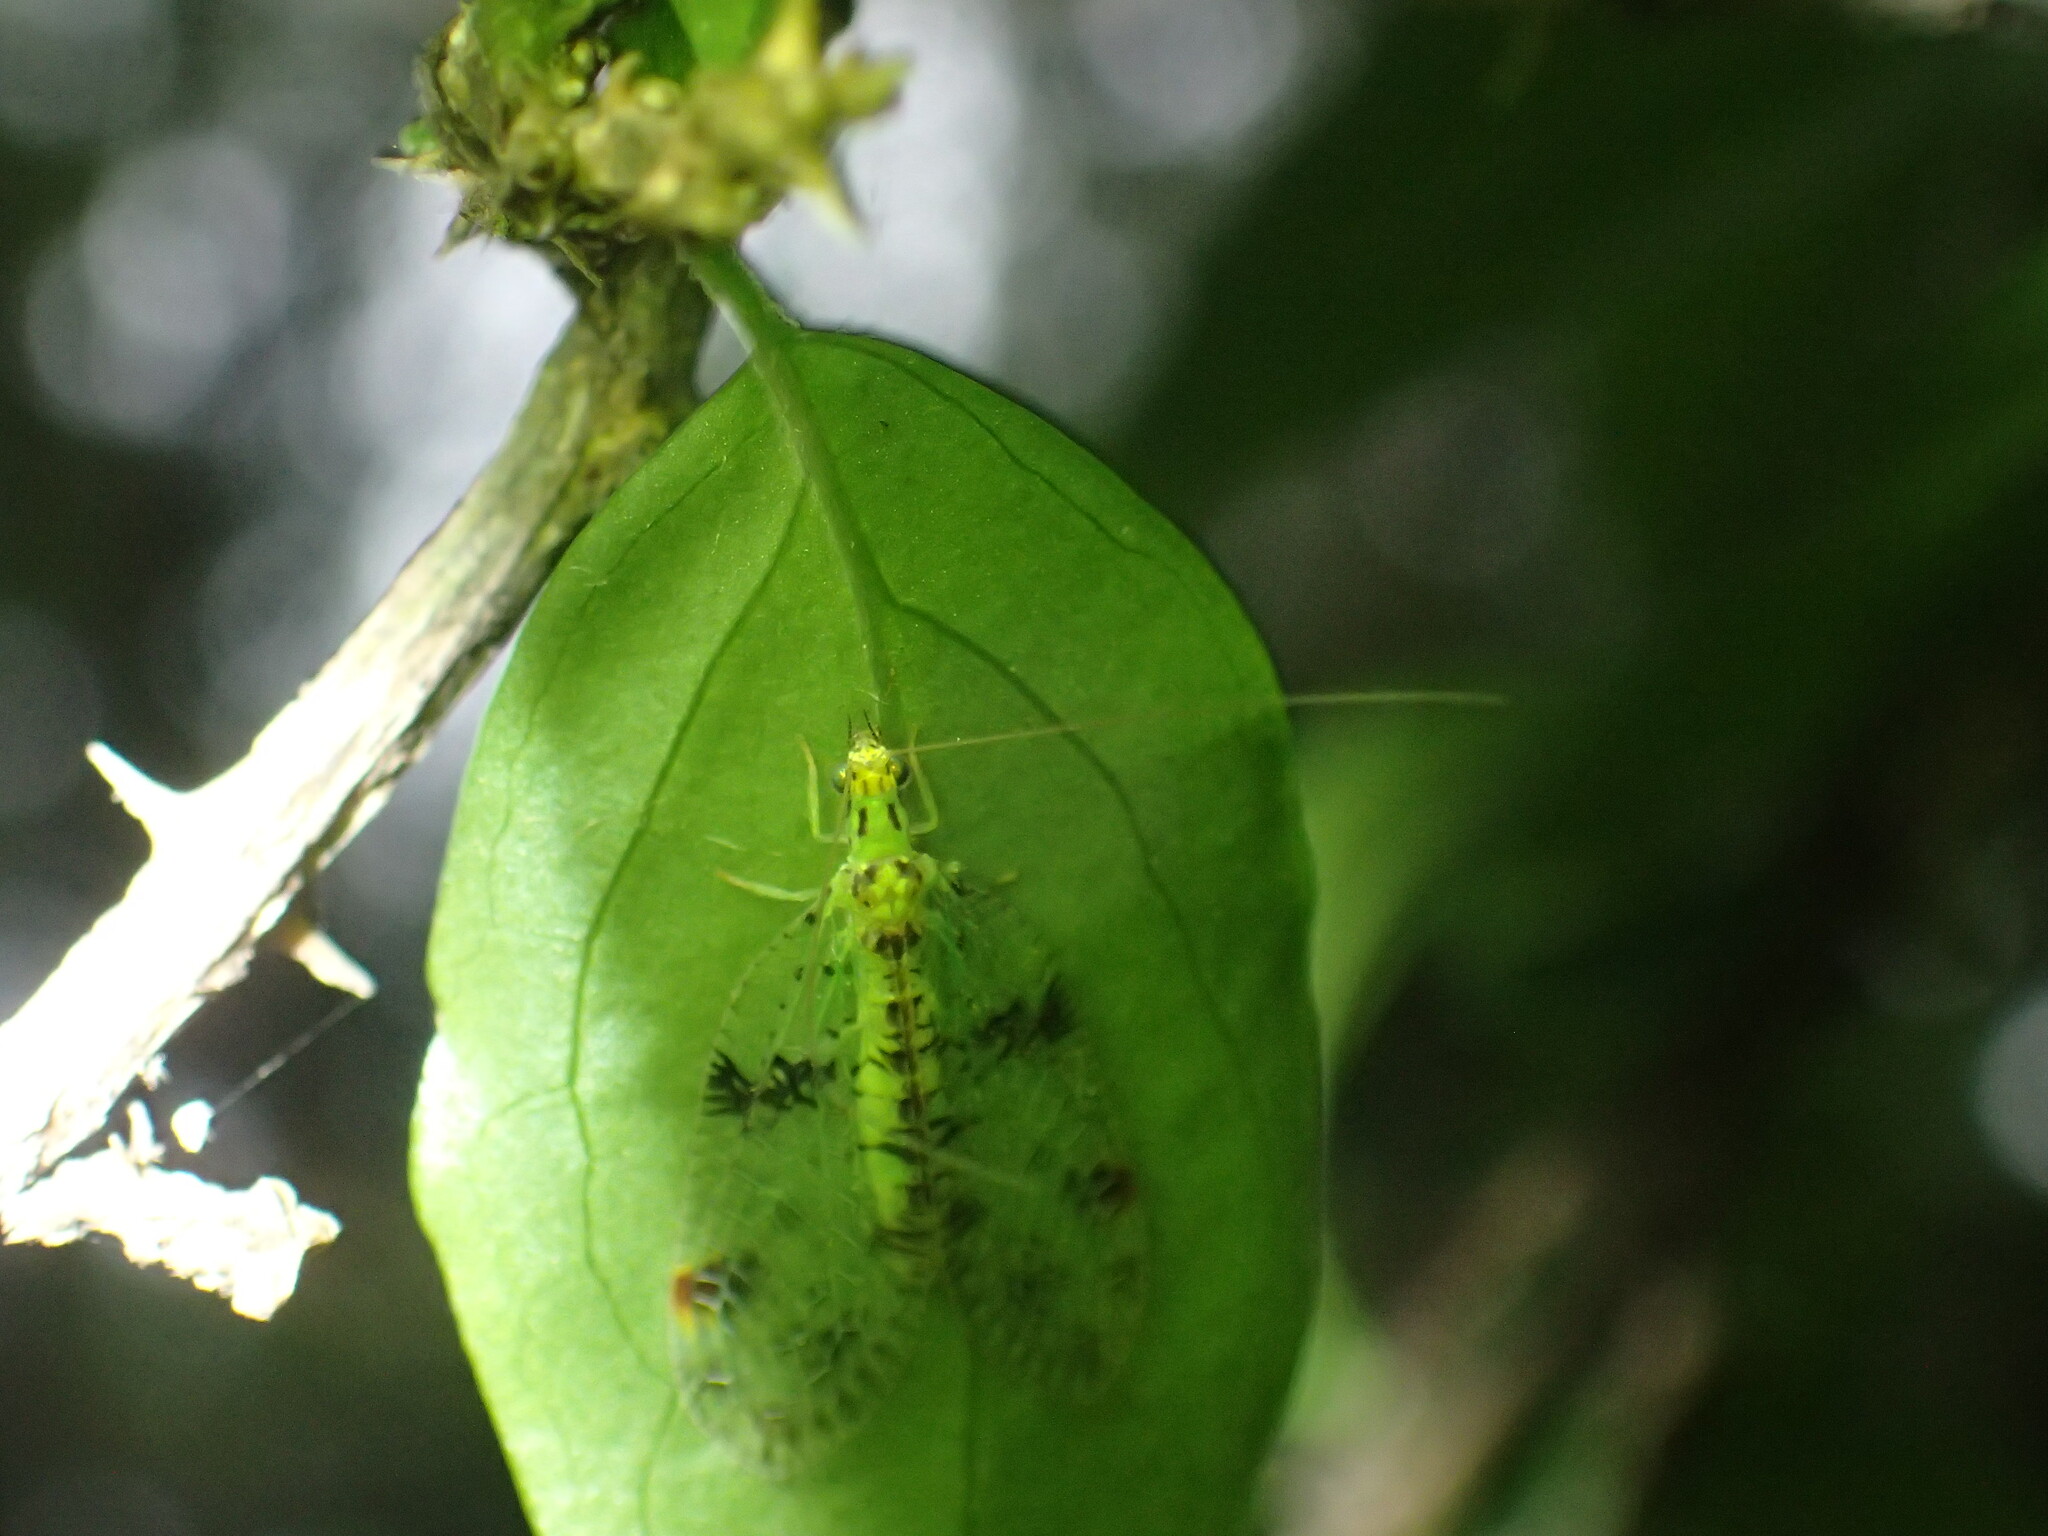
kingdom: Animalia
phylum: Arthropoda
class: Insecta
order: Neuroptera
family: Chrysopidae
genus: Glenochrysa
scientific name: Glenochrysa principissa
